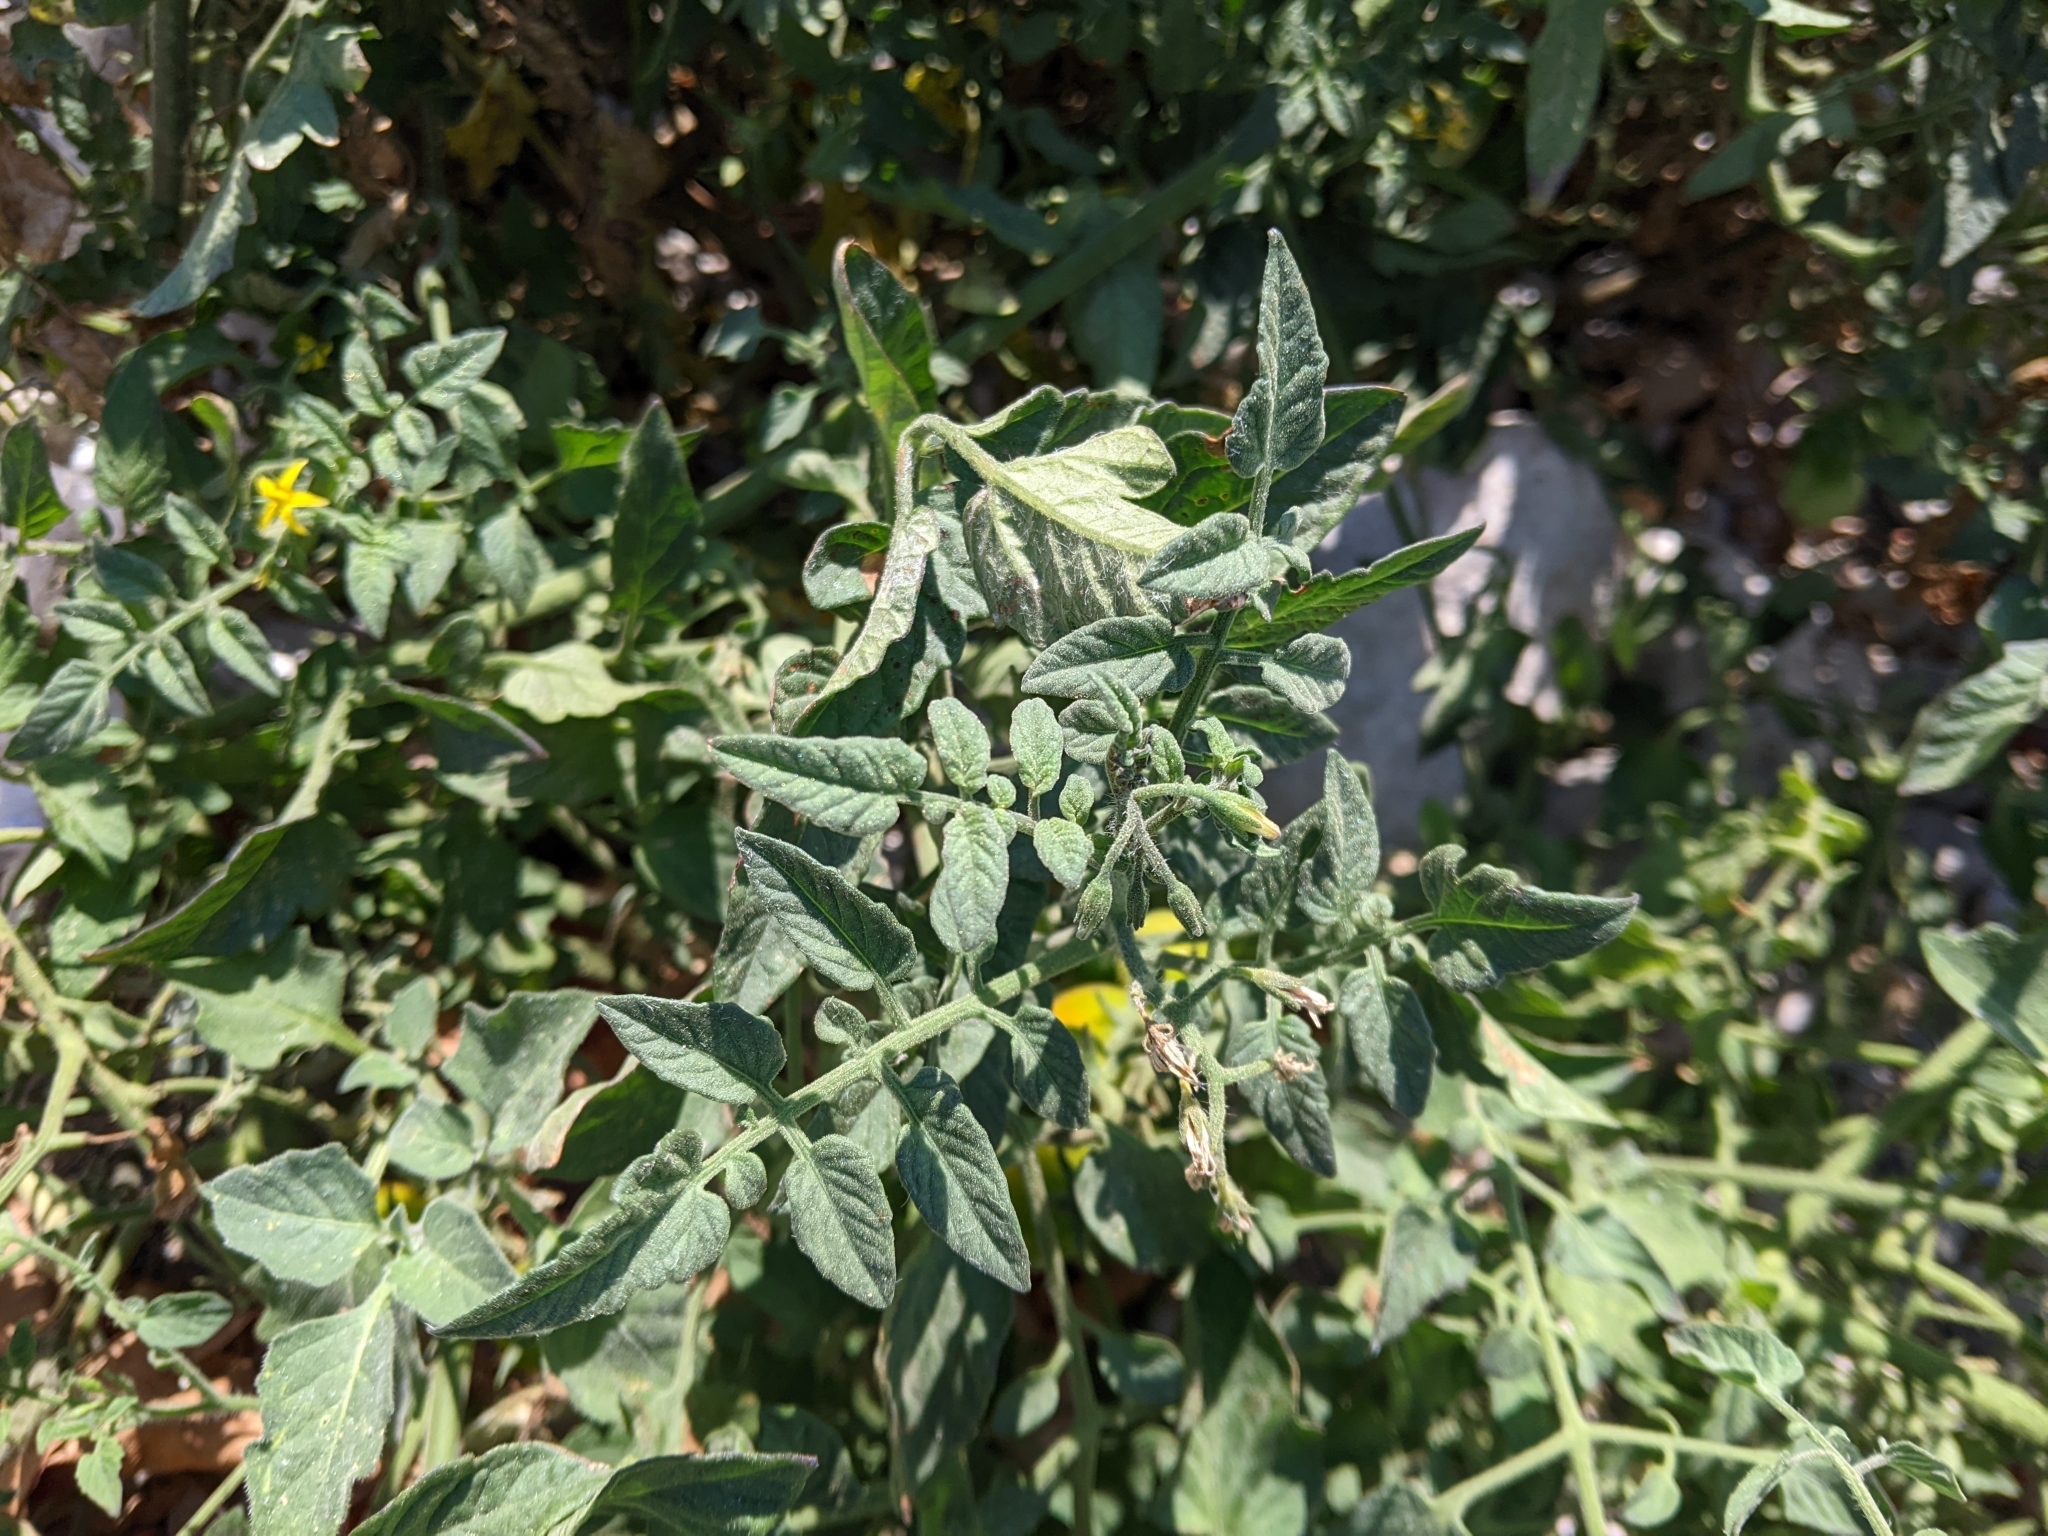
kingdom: Plantae
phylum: Tracheophyta
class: Magnoliopsida
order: Solanales
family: Solanaceae
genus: Solanum
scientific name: Solanum lycopersicum
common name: Garden tomato
